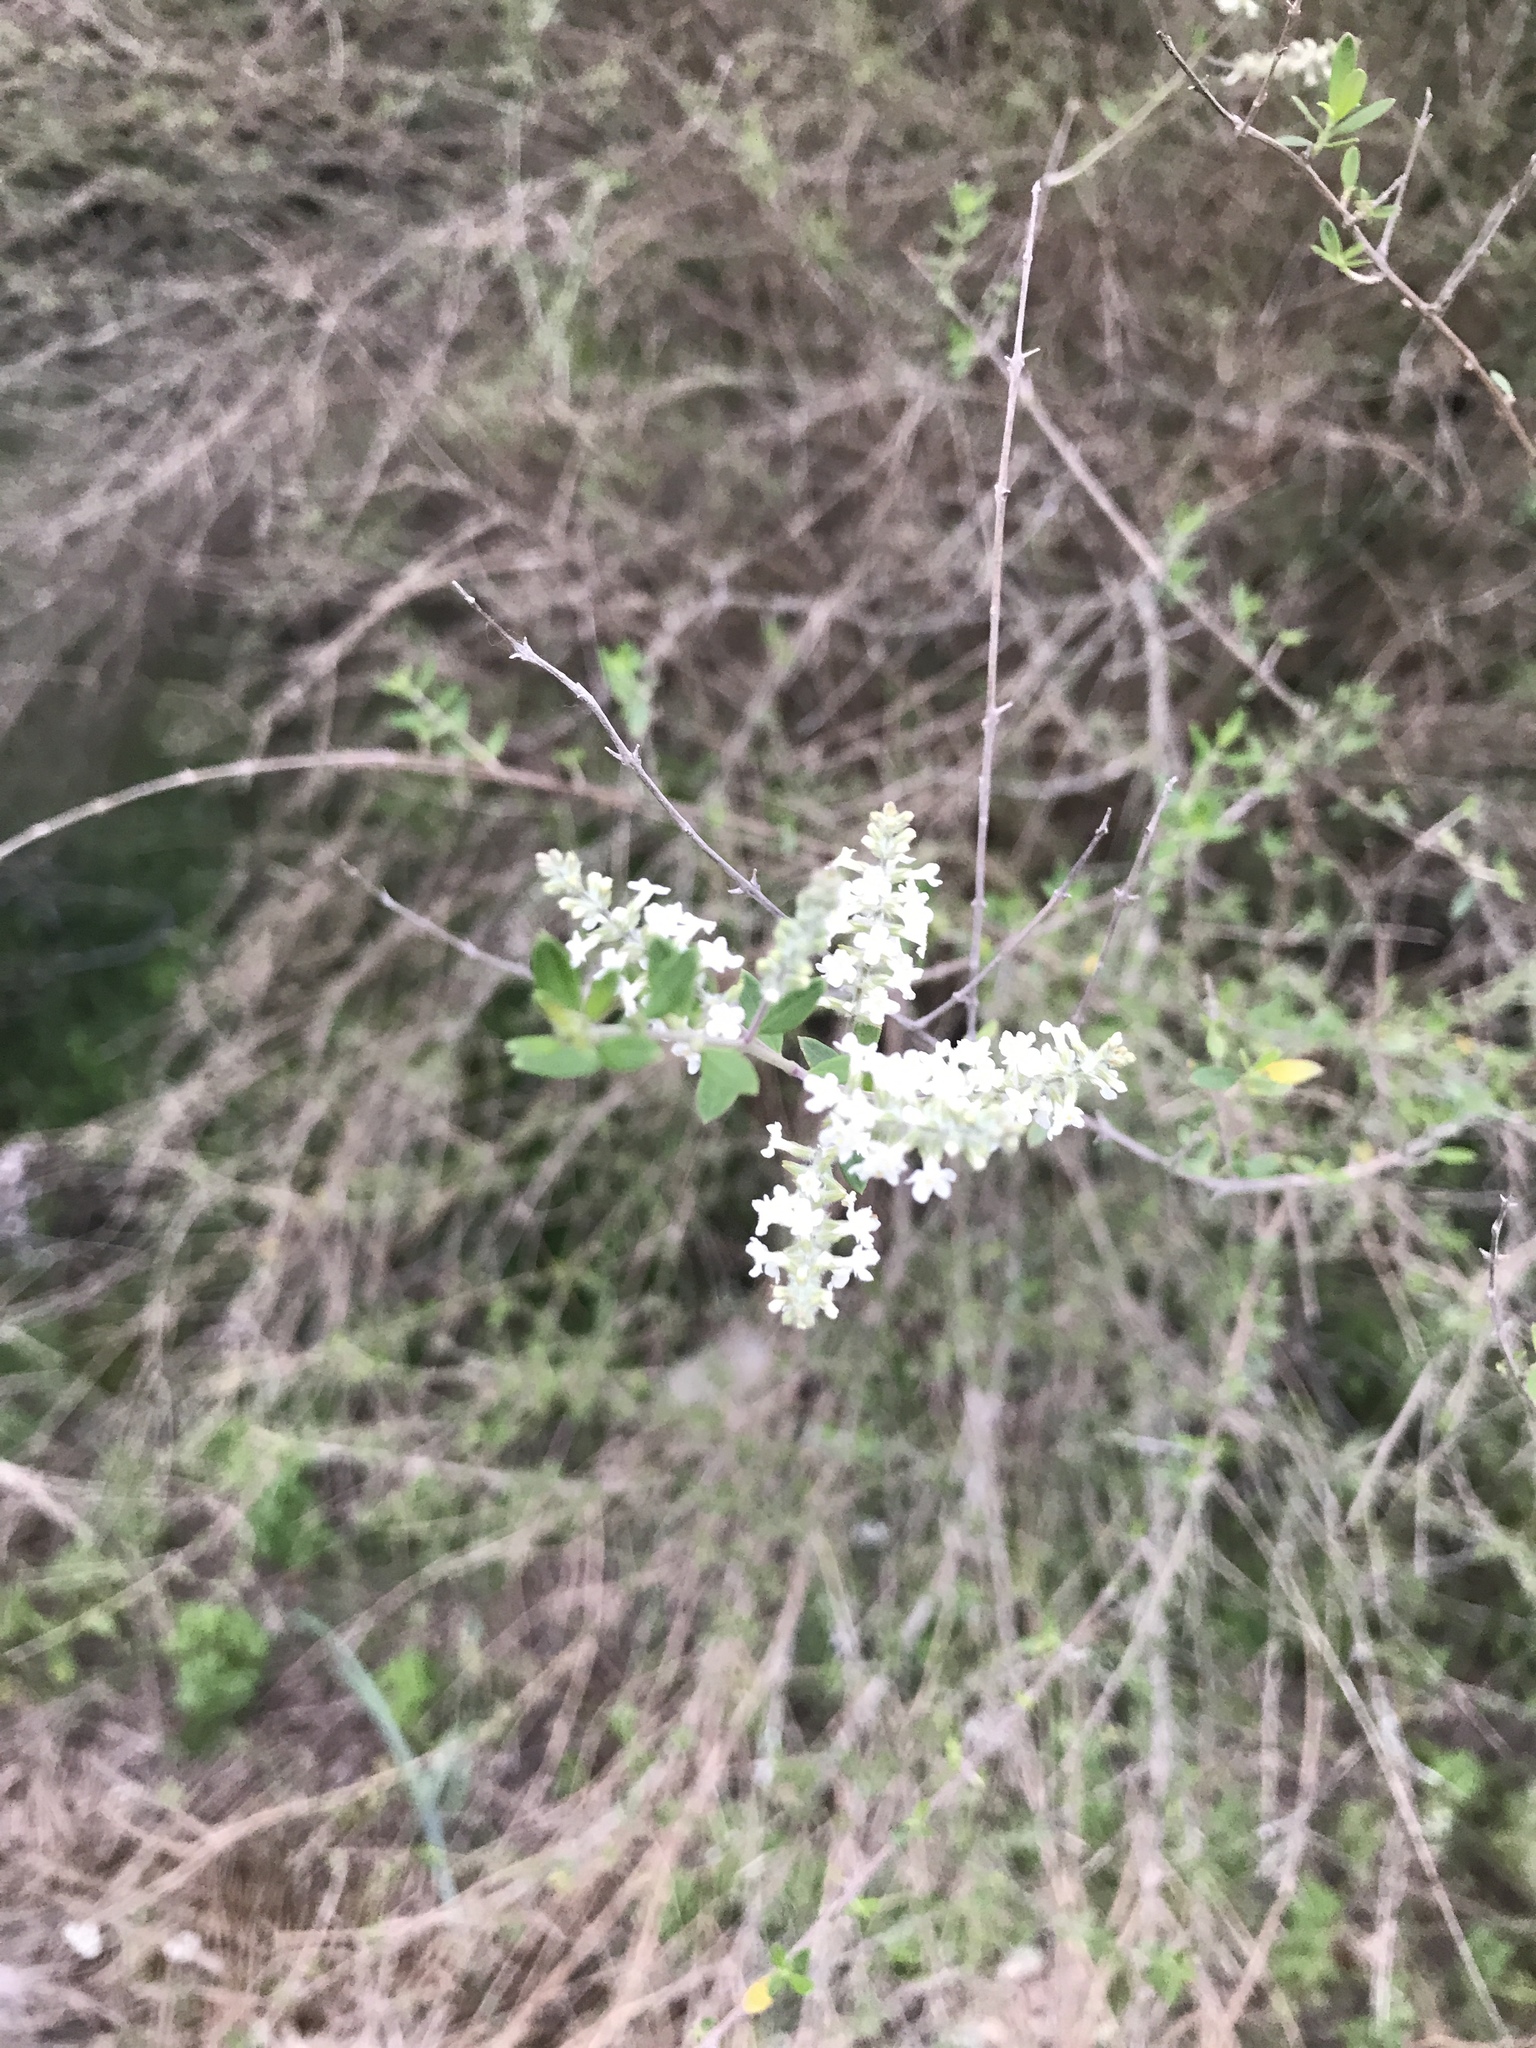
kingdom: Plantae
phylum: Tracheophyta
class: Magnoliopsida
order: Lamiales
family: Verbenaceae
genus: Aloysia
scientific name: Aloysia gratissima
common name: Common bee-brush
